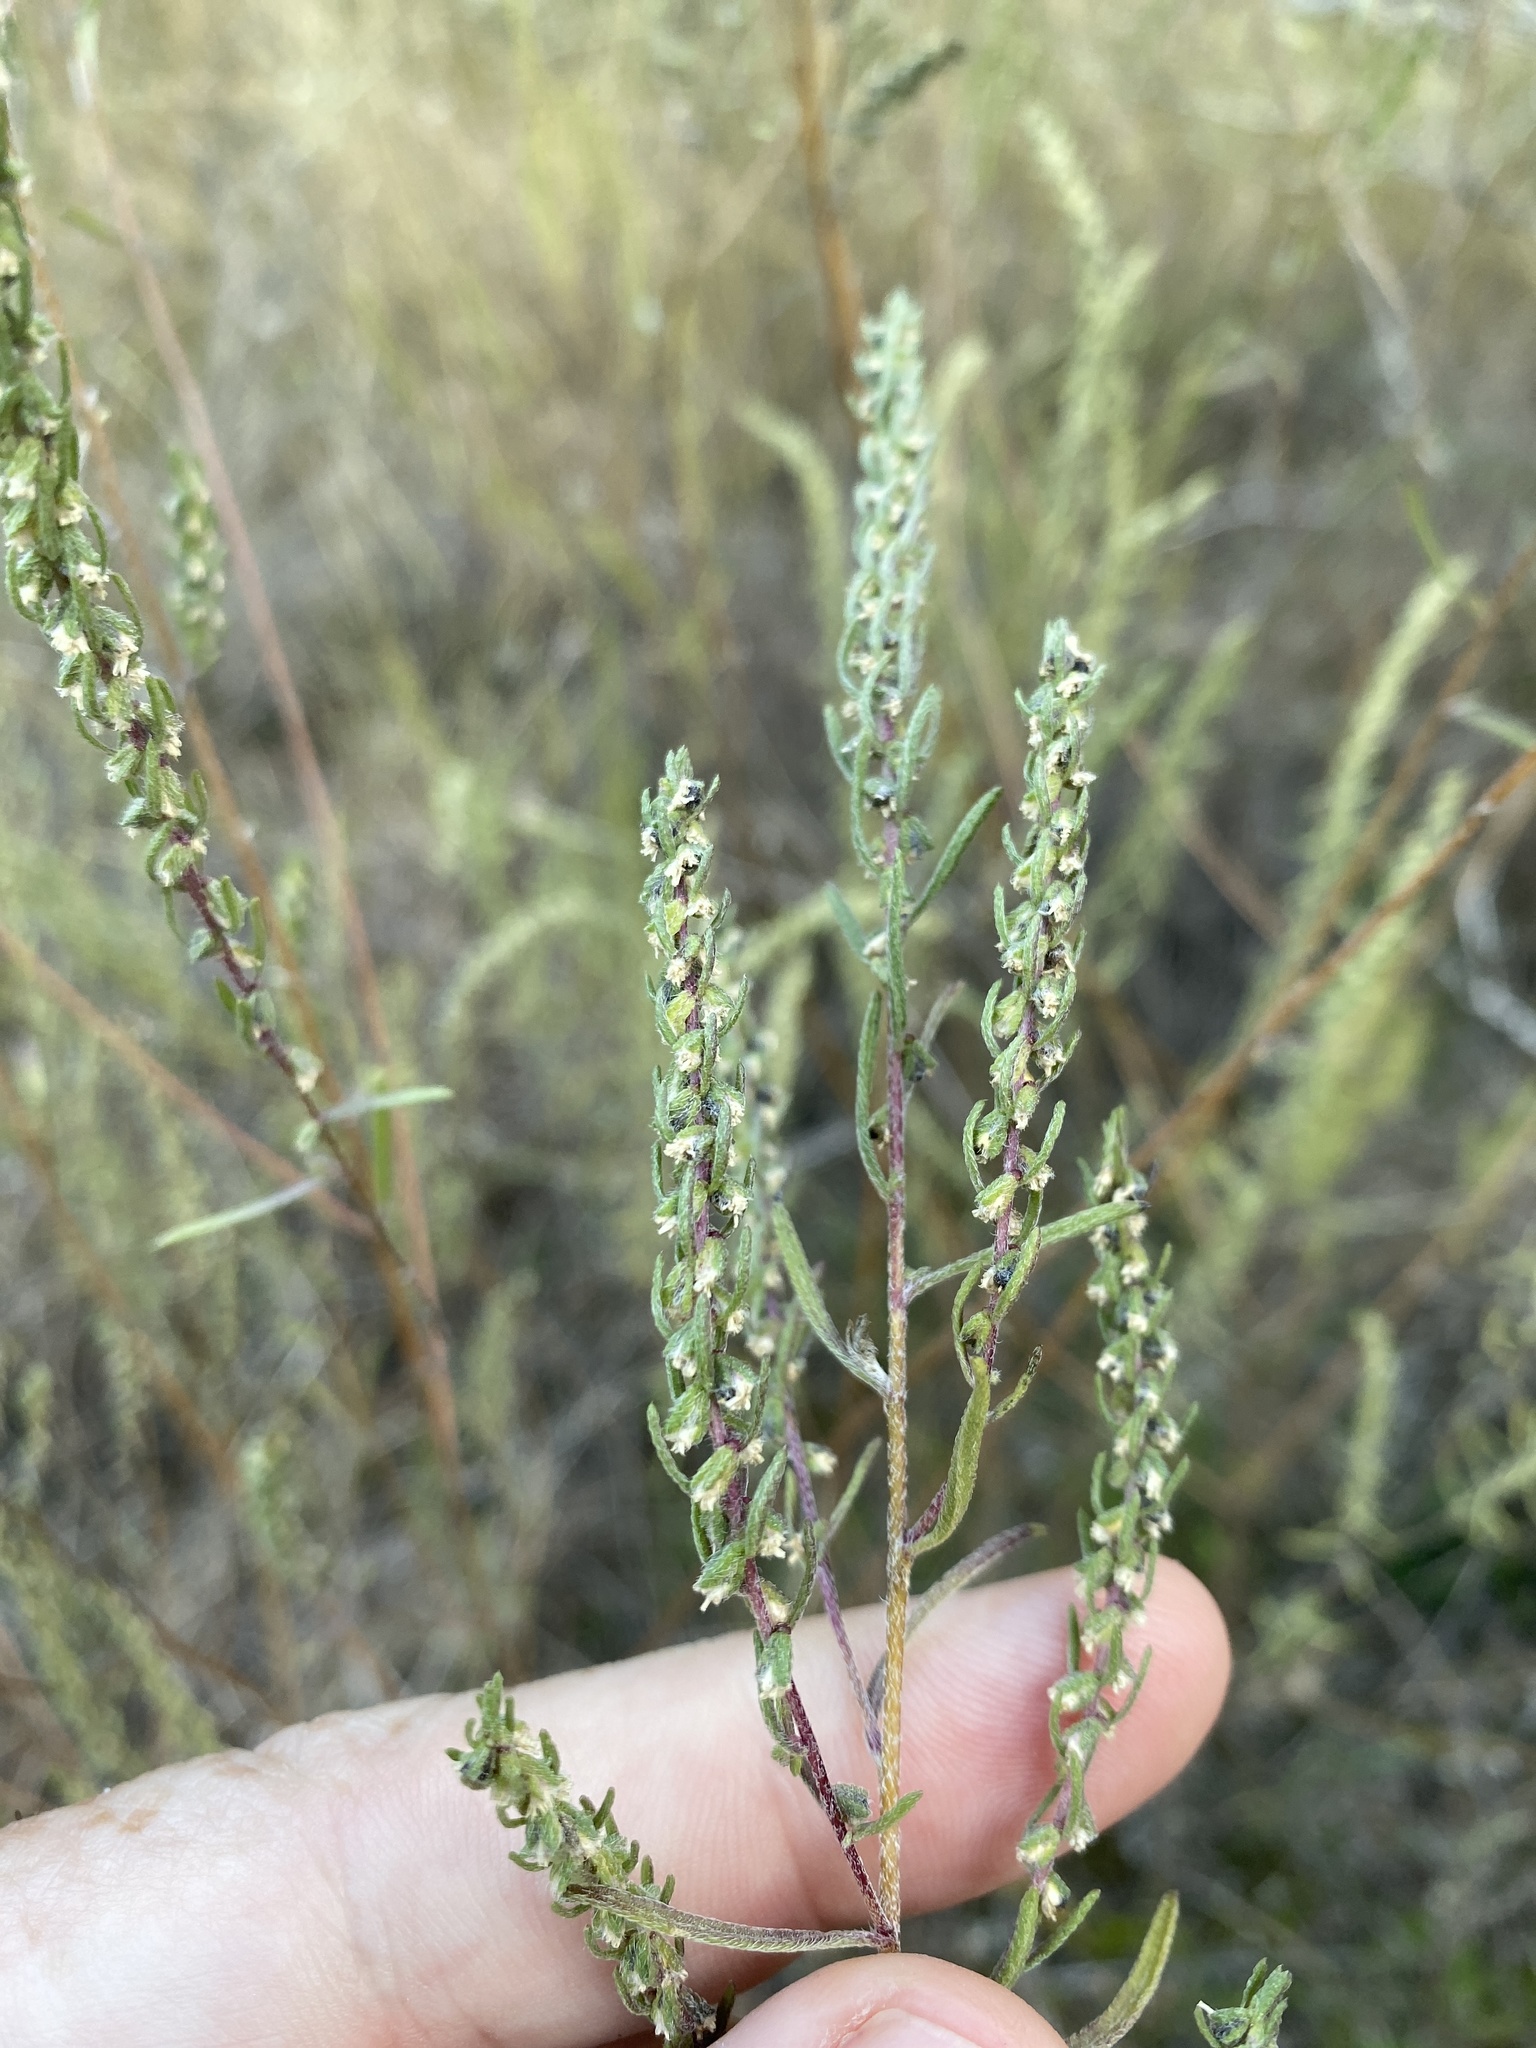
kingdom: Plantae
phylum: Tracheophyta
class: Magnoliopsida
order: Asterales
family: Asteraceae
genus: Iva
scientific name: Iva asperifolia
